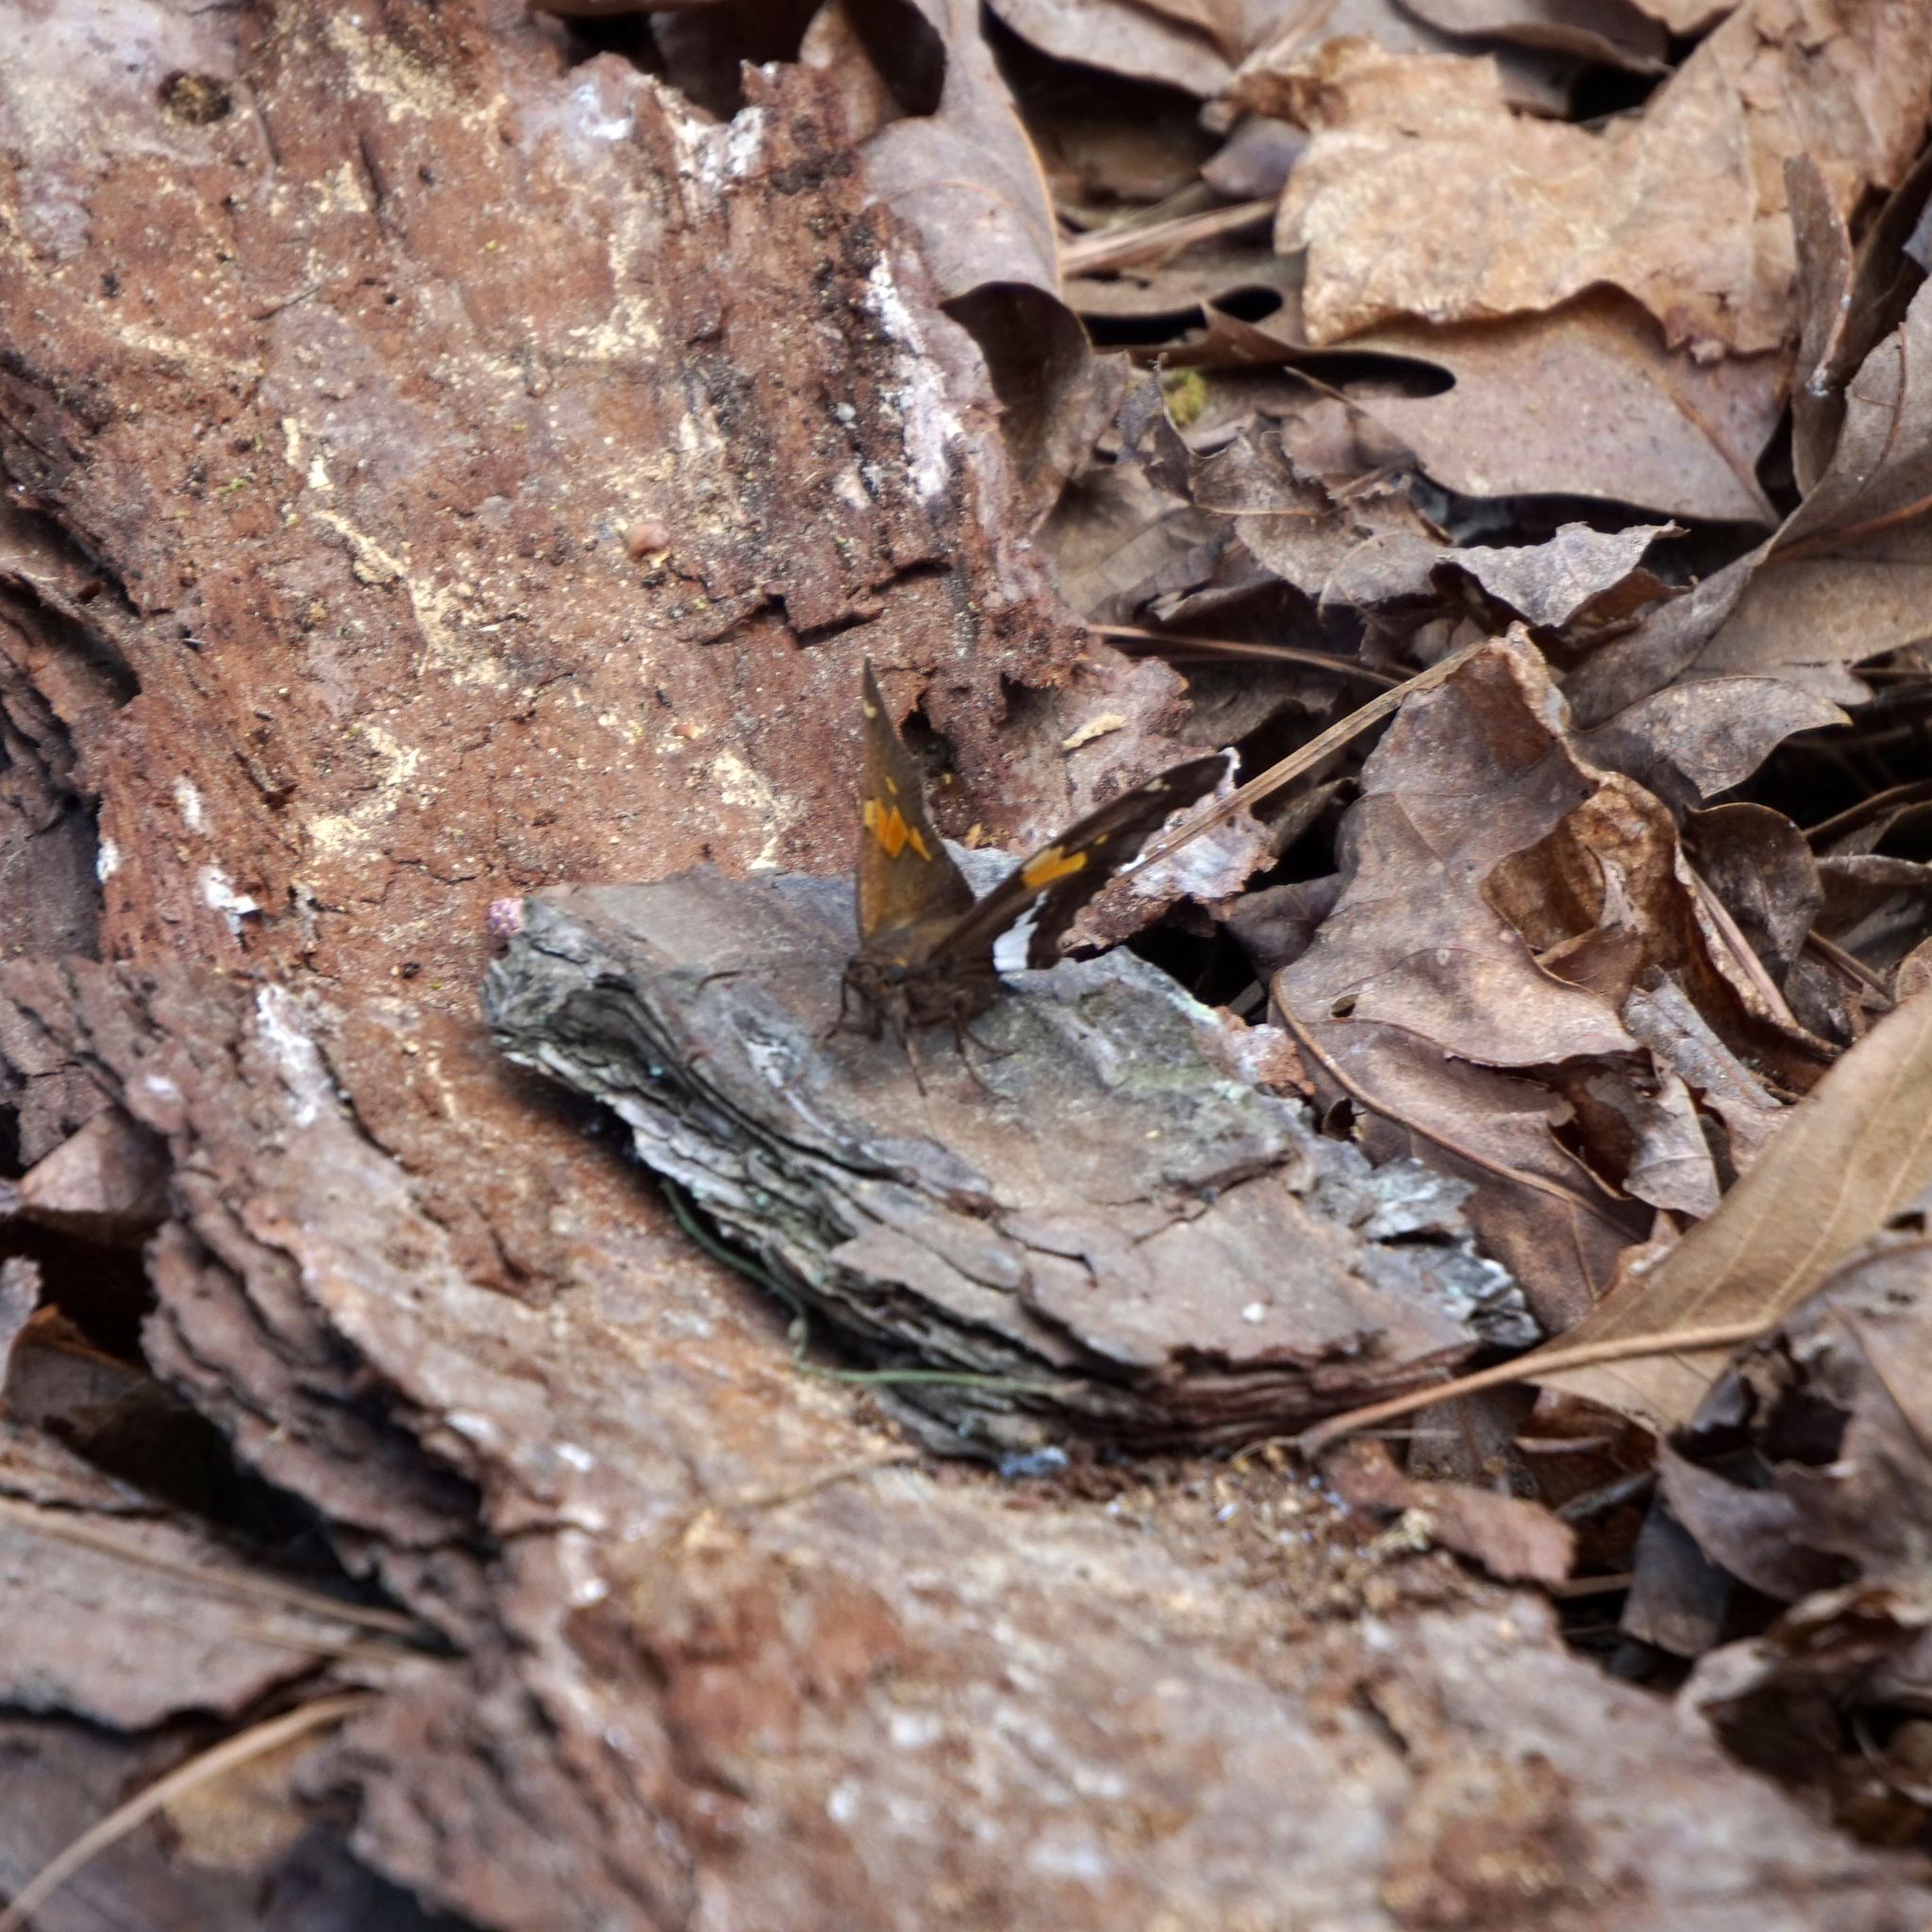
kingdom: Animalia
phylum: Arthropoda
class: Insecta
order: Lepidoptera
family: Hesperiidae
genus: Epargyreus
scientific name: Epargyreus clarus
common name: Silver-spotted skipper
